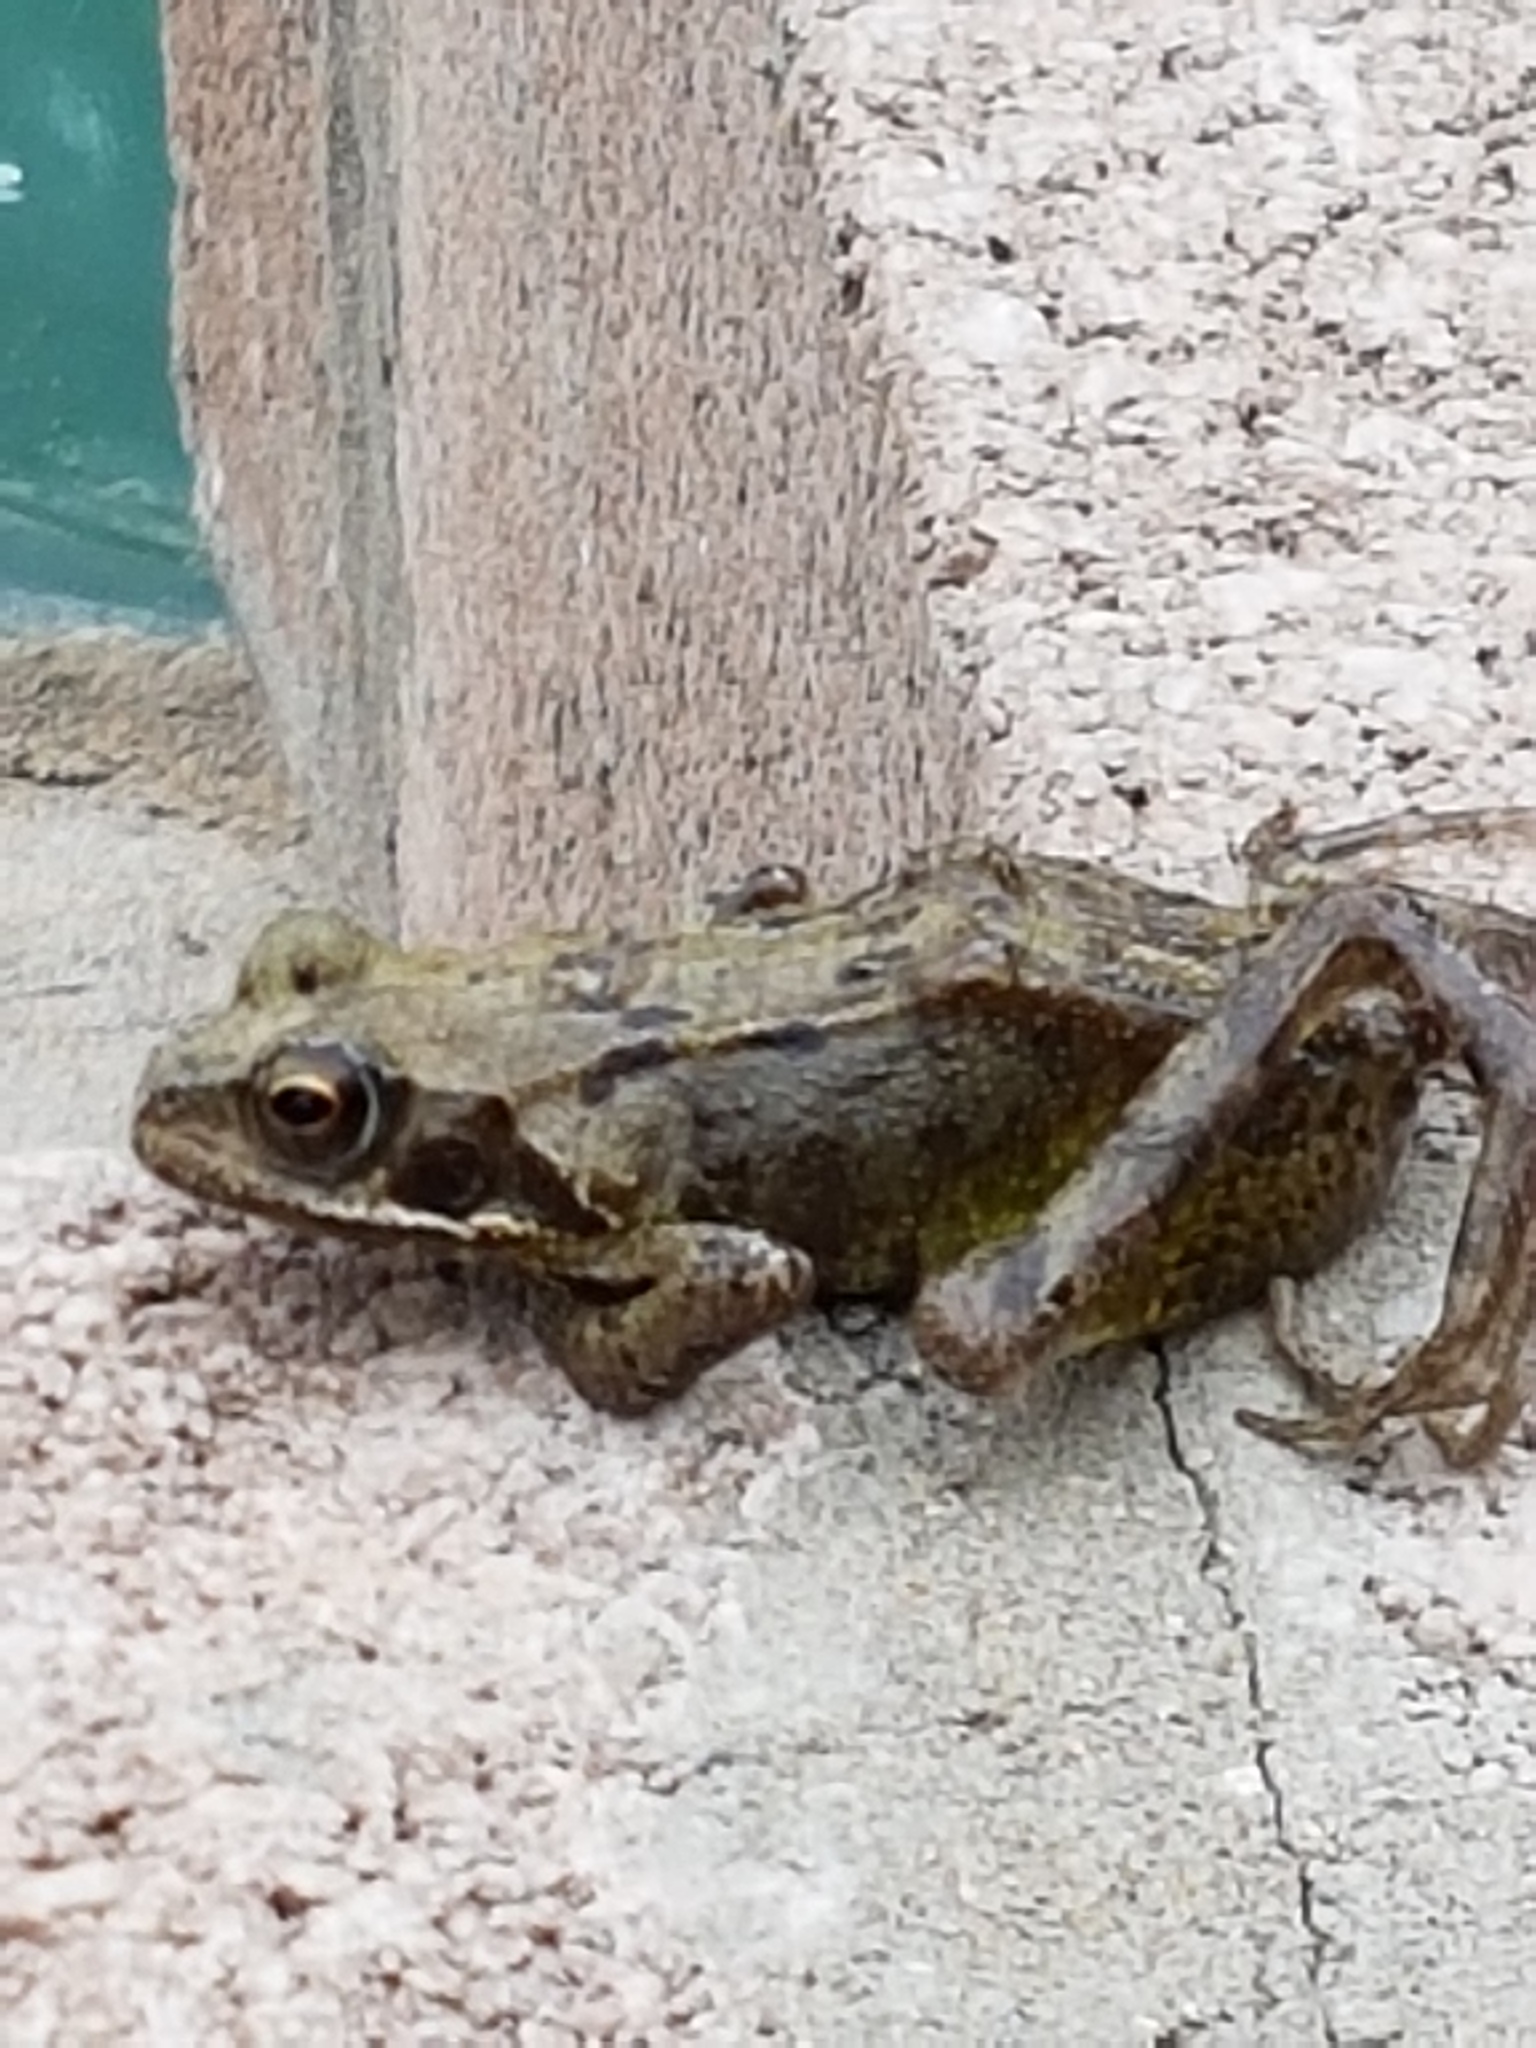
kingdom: Animalia
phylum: Chordata
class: Amphibia
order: Anura
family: Ranidae
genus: Rana
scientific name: Rana temporaria
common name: Common frog
